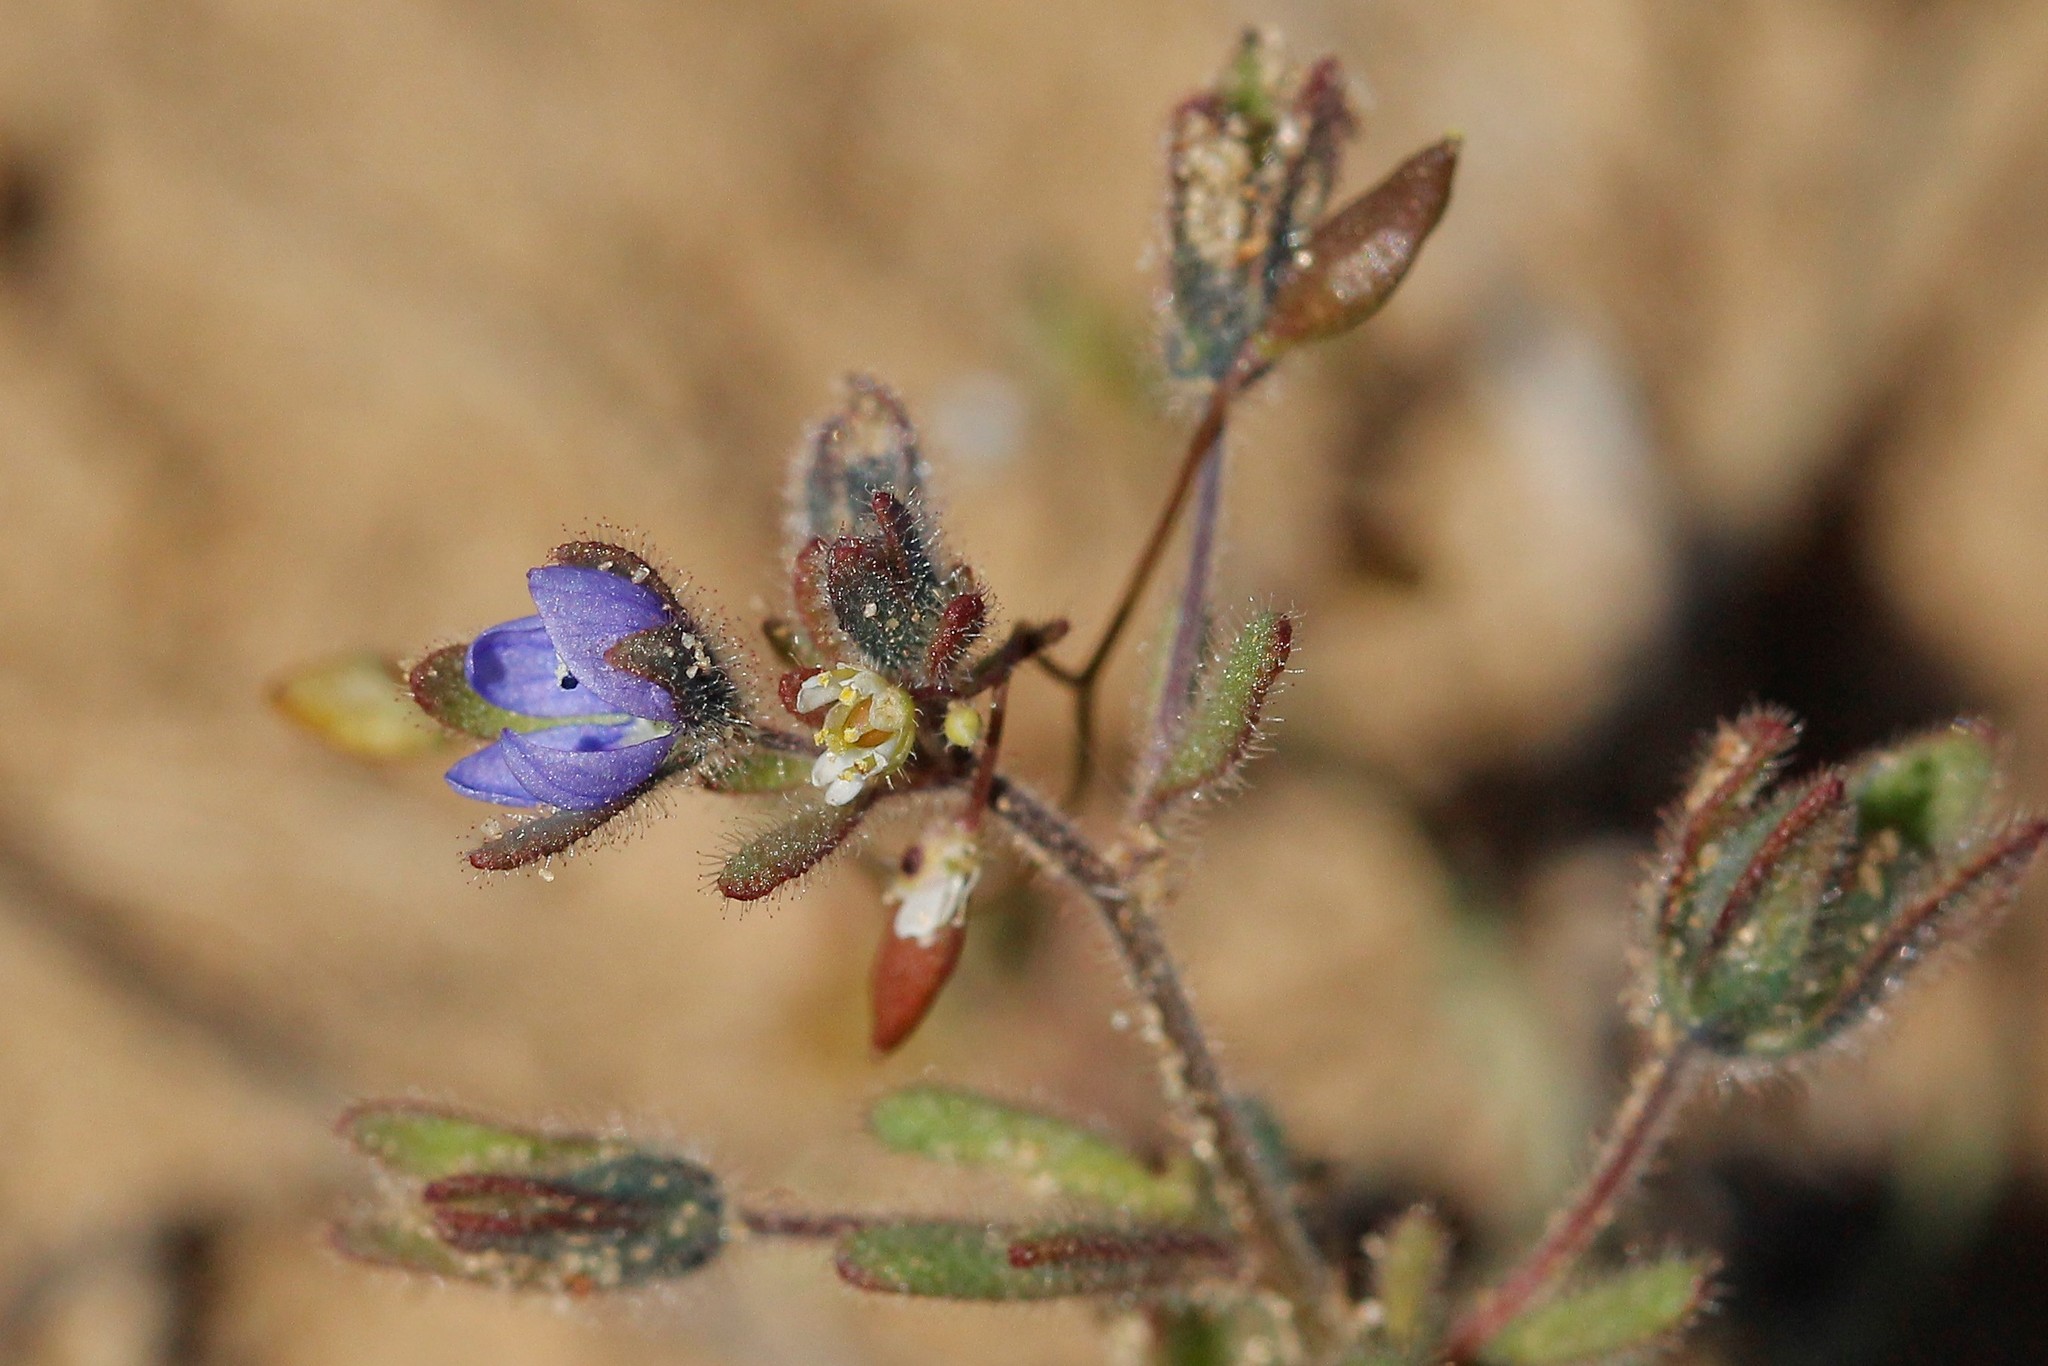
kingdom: Plantae
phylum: Tracheophyta
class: Magnoliopsida
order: Lamiales
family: Plantaginaceae
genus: Veronica
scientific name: Veronica triphyllos
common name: Fingered speedwell
